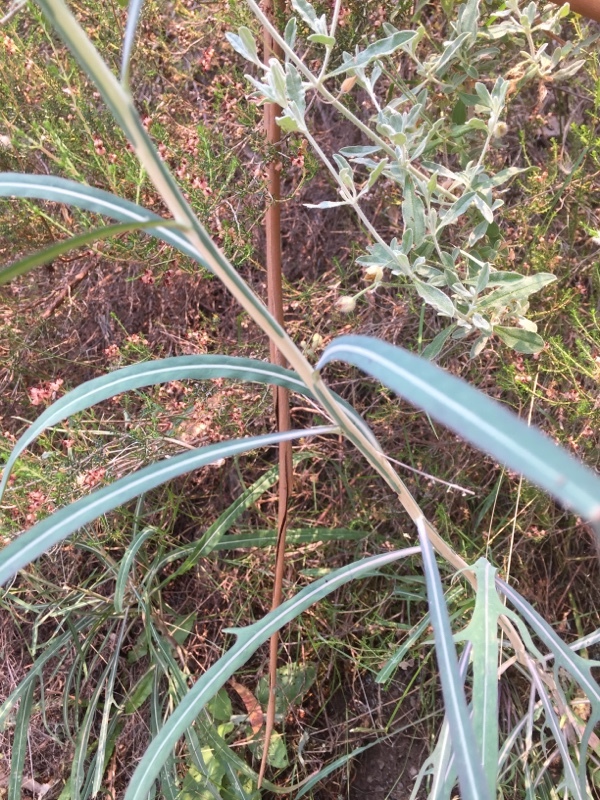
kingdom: Plantae
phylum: Tracheophyta
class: Magnoliopsida
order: Asterales
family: Asteraceae
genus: Lactuca
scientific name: Lactuca viminea
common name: Pliant lettuce
